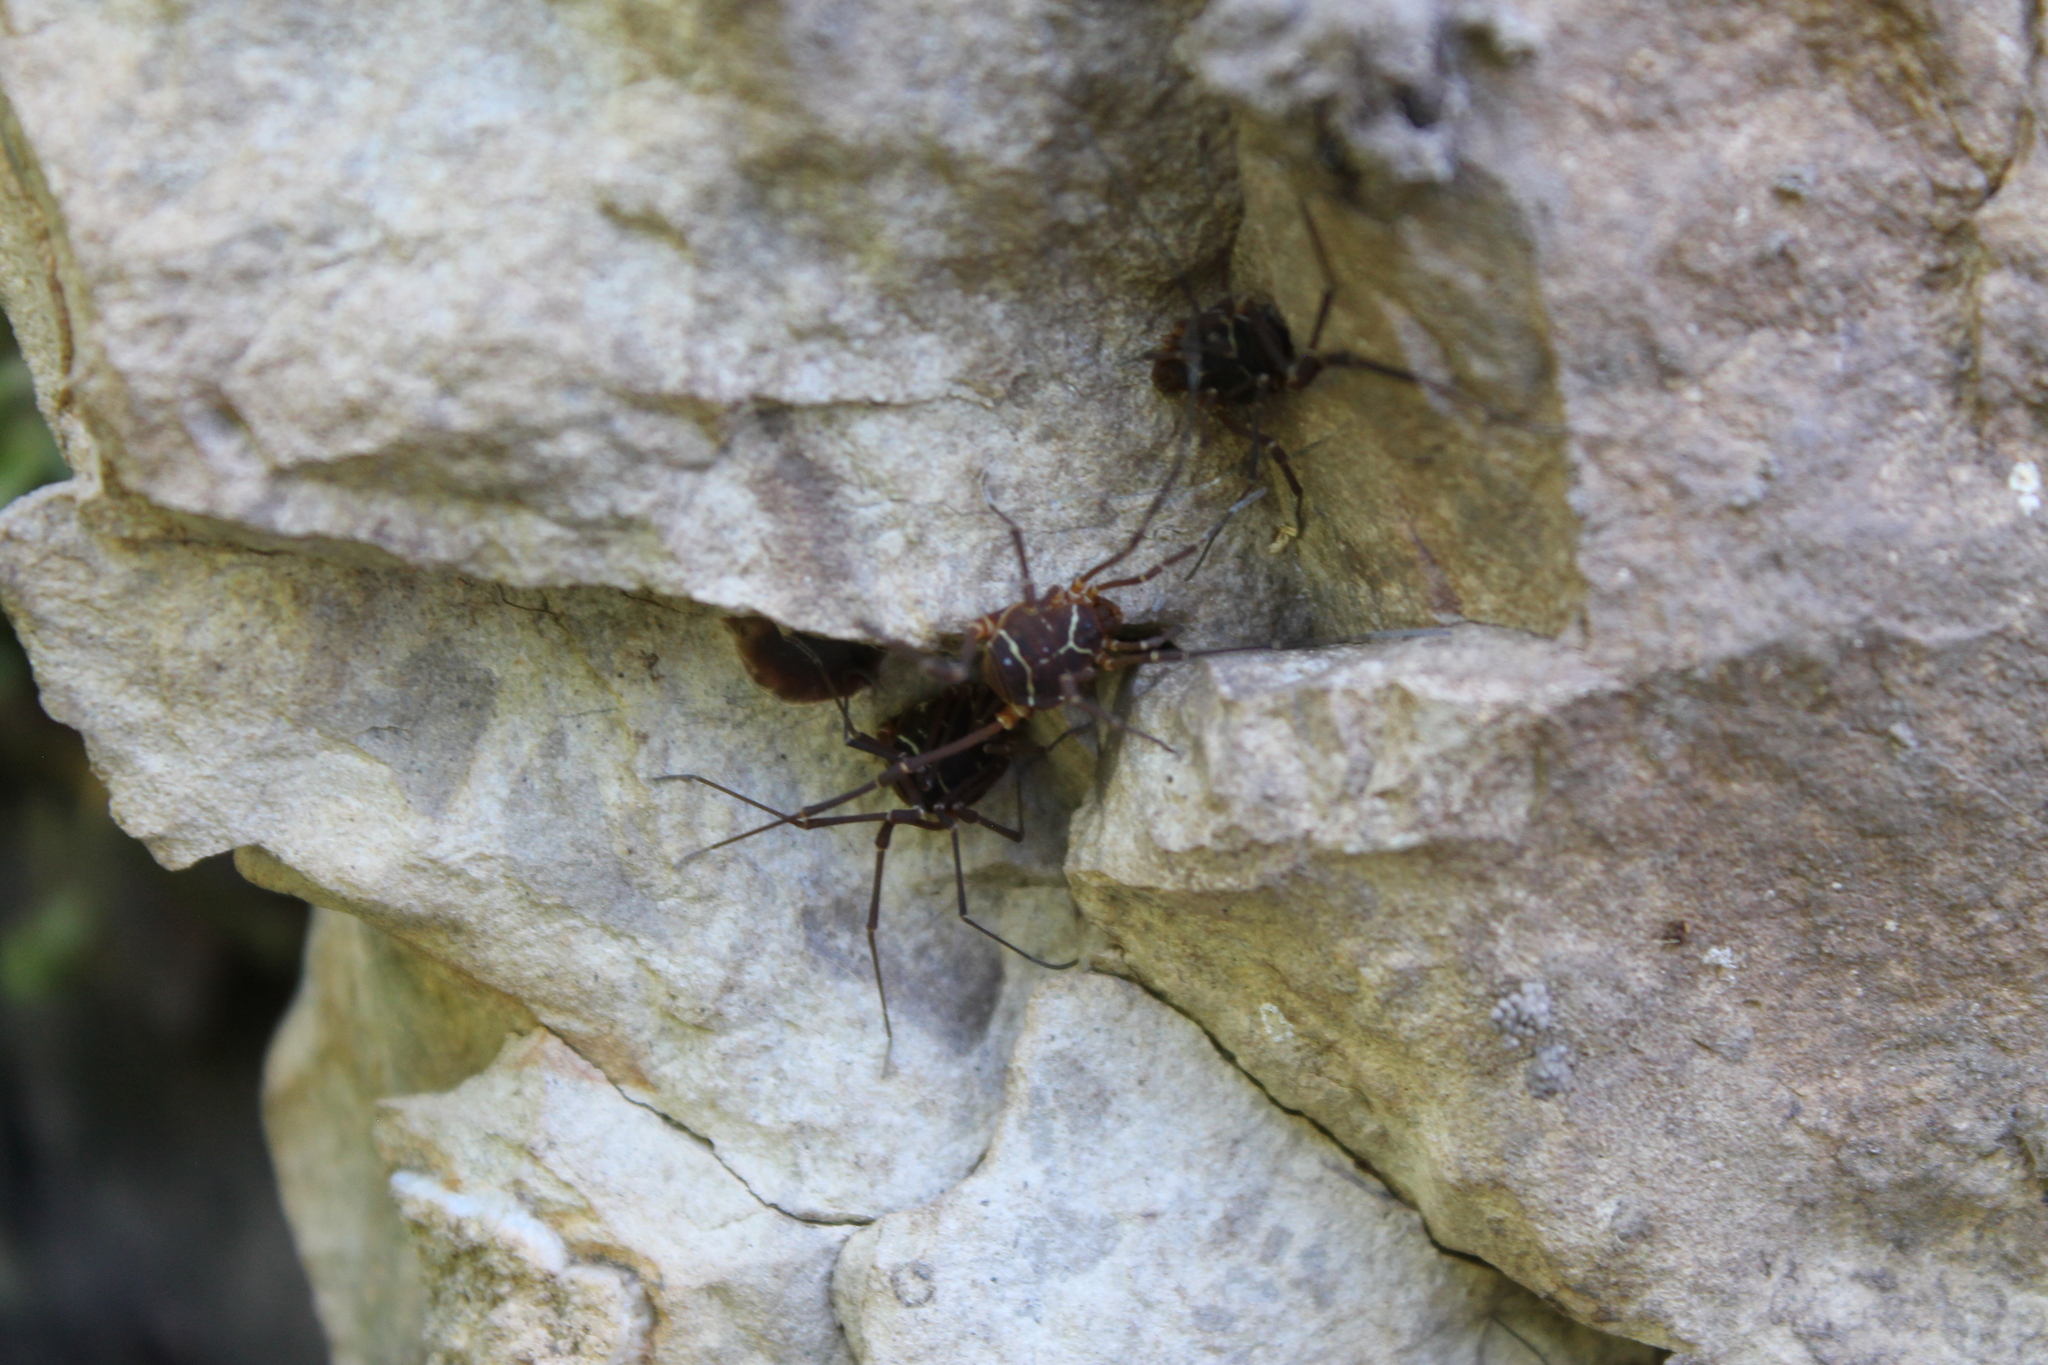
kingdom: Animalia
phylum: Arthropoda
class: Arachnida
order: Opiliones
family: Cosmetidae
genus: Libitioides
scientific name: Libitioides sayi
